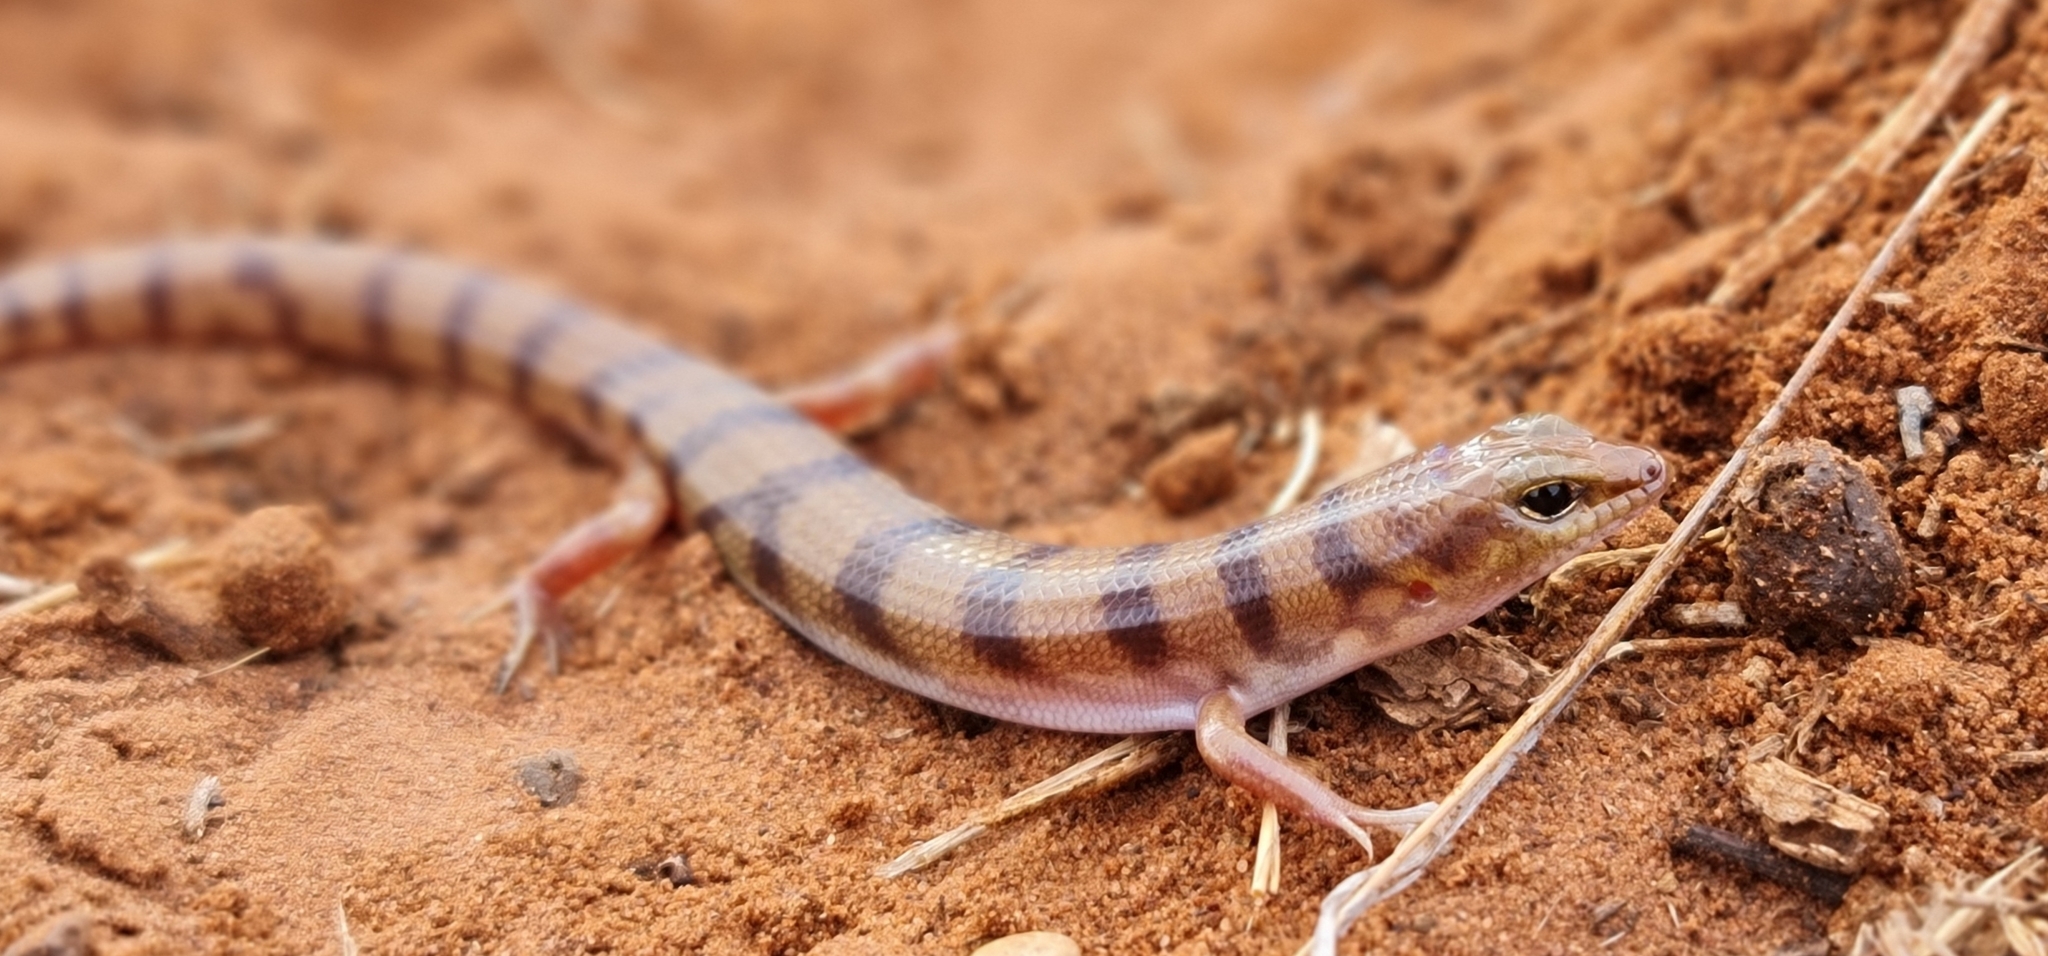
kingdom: Animalia
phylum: Chordata
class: Squamata
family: Scincidae
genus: Eremiascincus
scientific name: Eremiascincus richardsonii
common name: Broad banded sand swimmer
